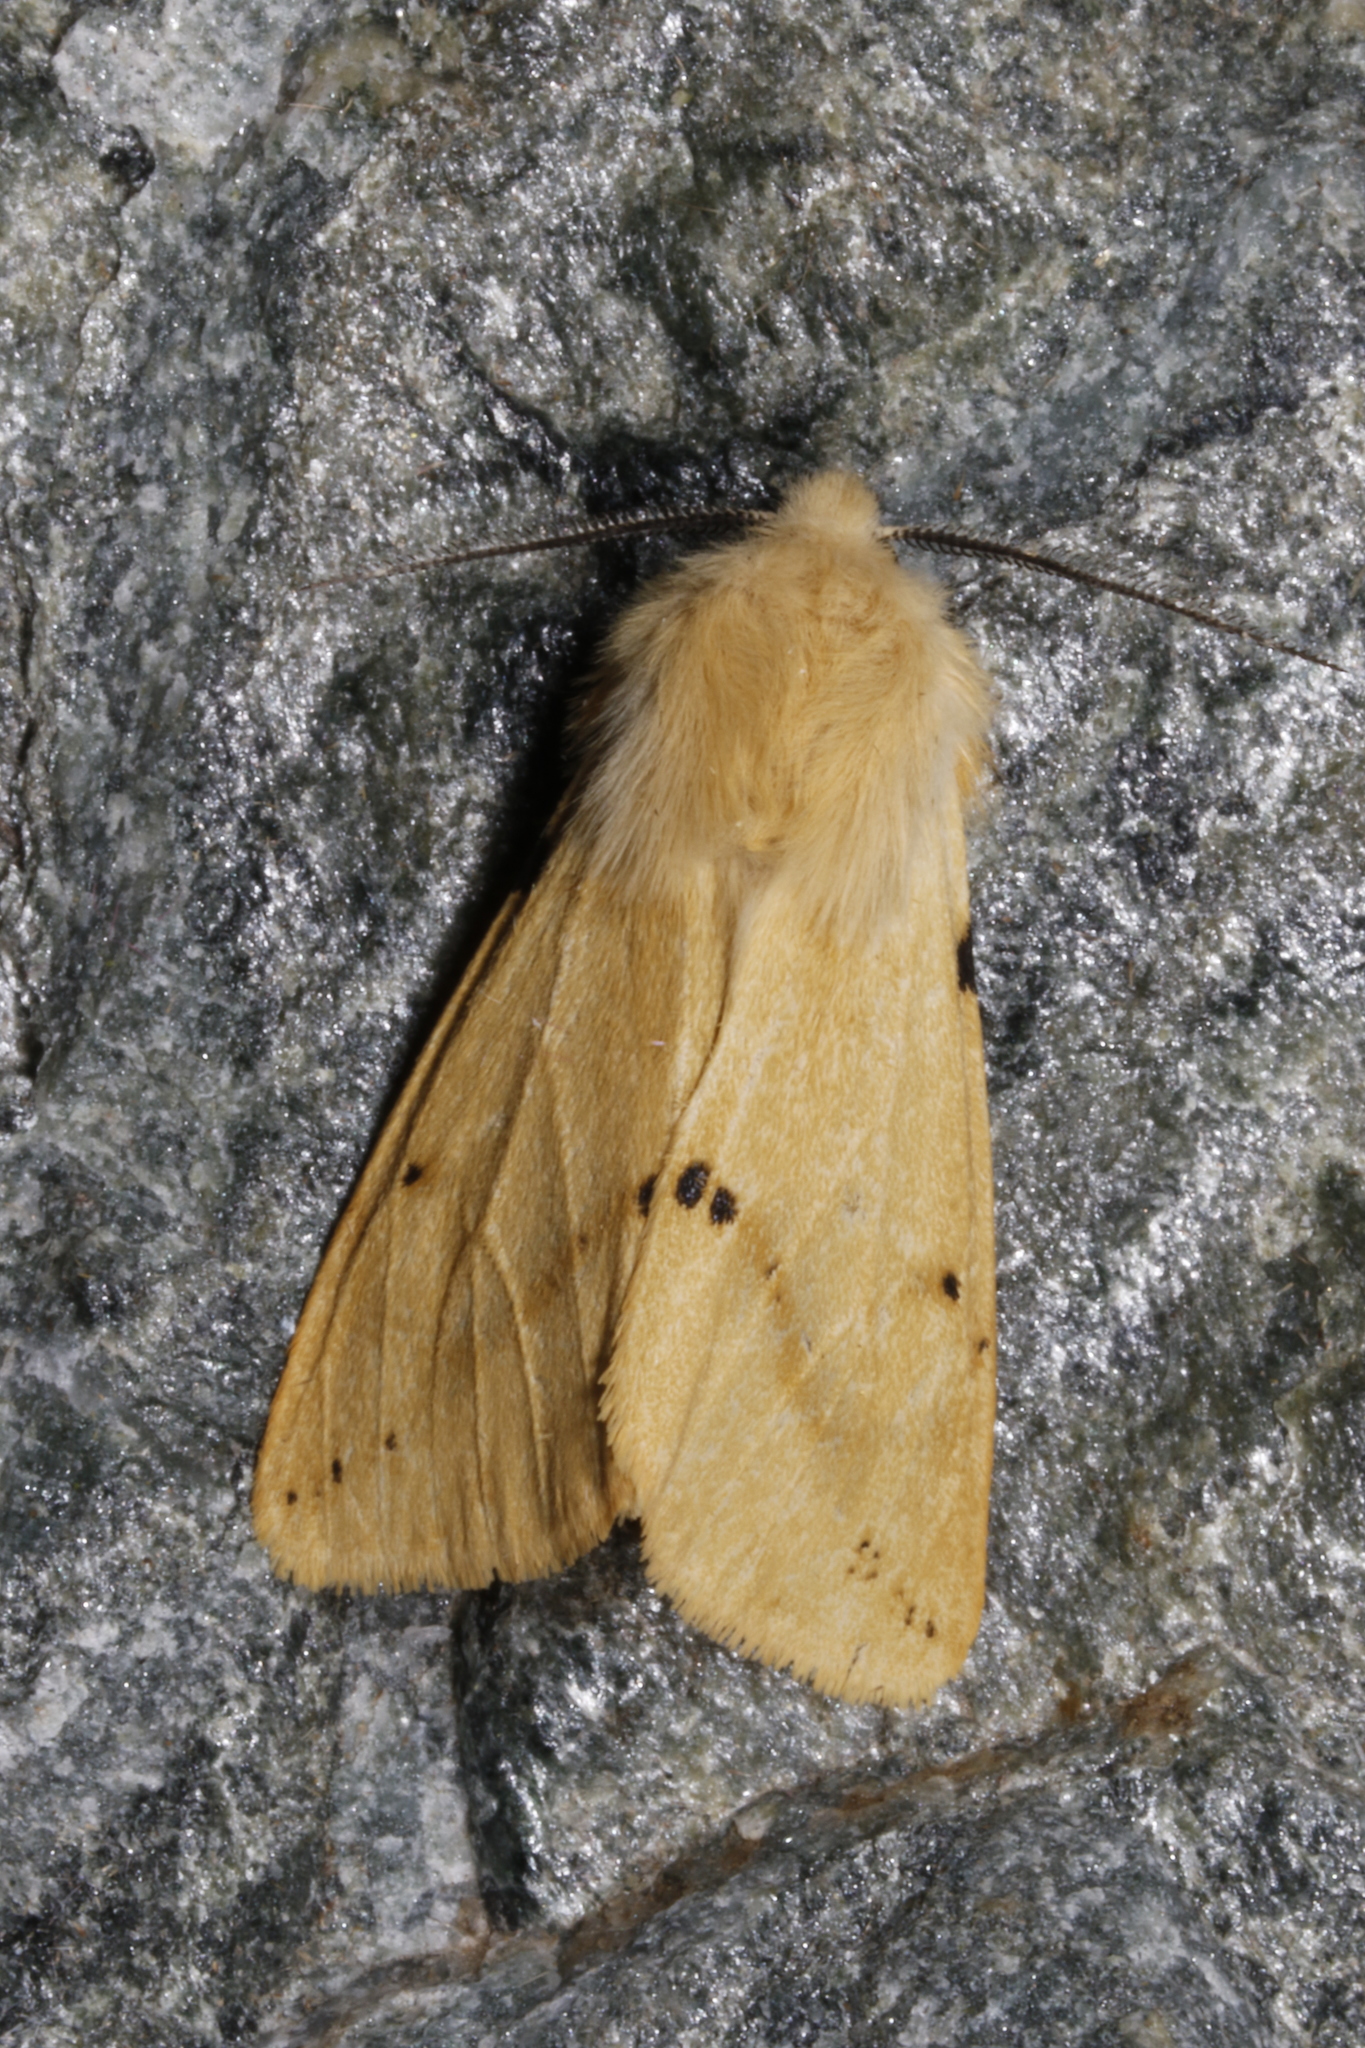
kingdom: Animalia
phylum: Arthropoda
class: Insecta
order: Lepidoptera
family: Erebidae
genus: Spilarctia
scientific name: Spilarctia lutea
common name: Buff ermine
